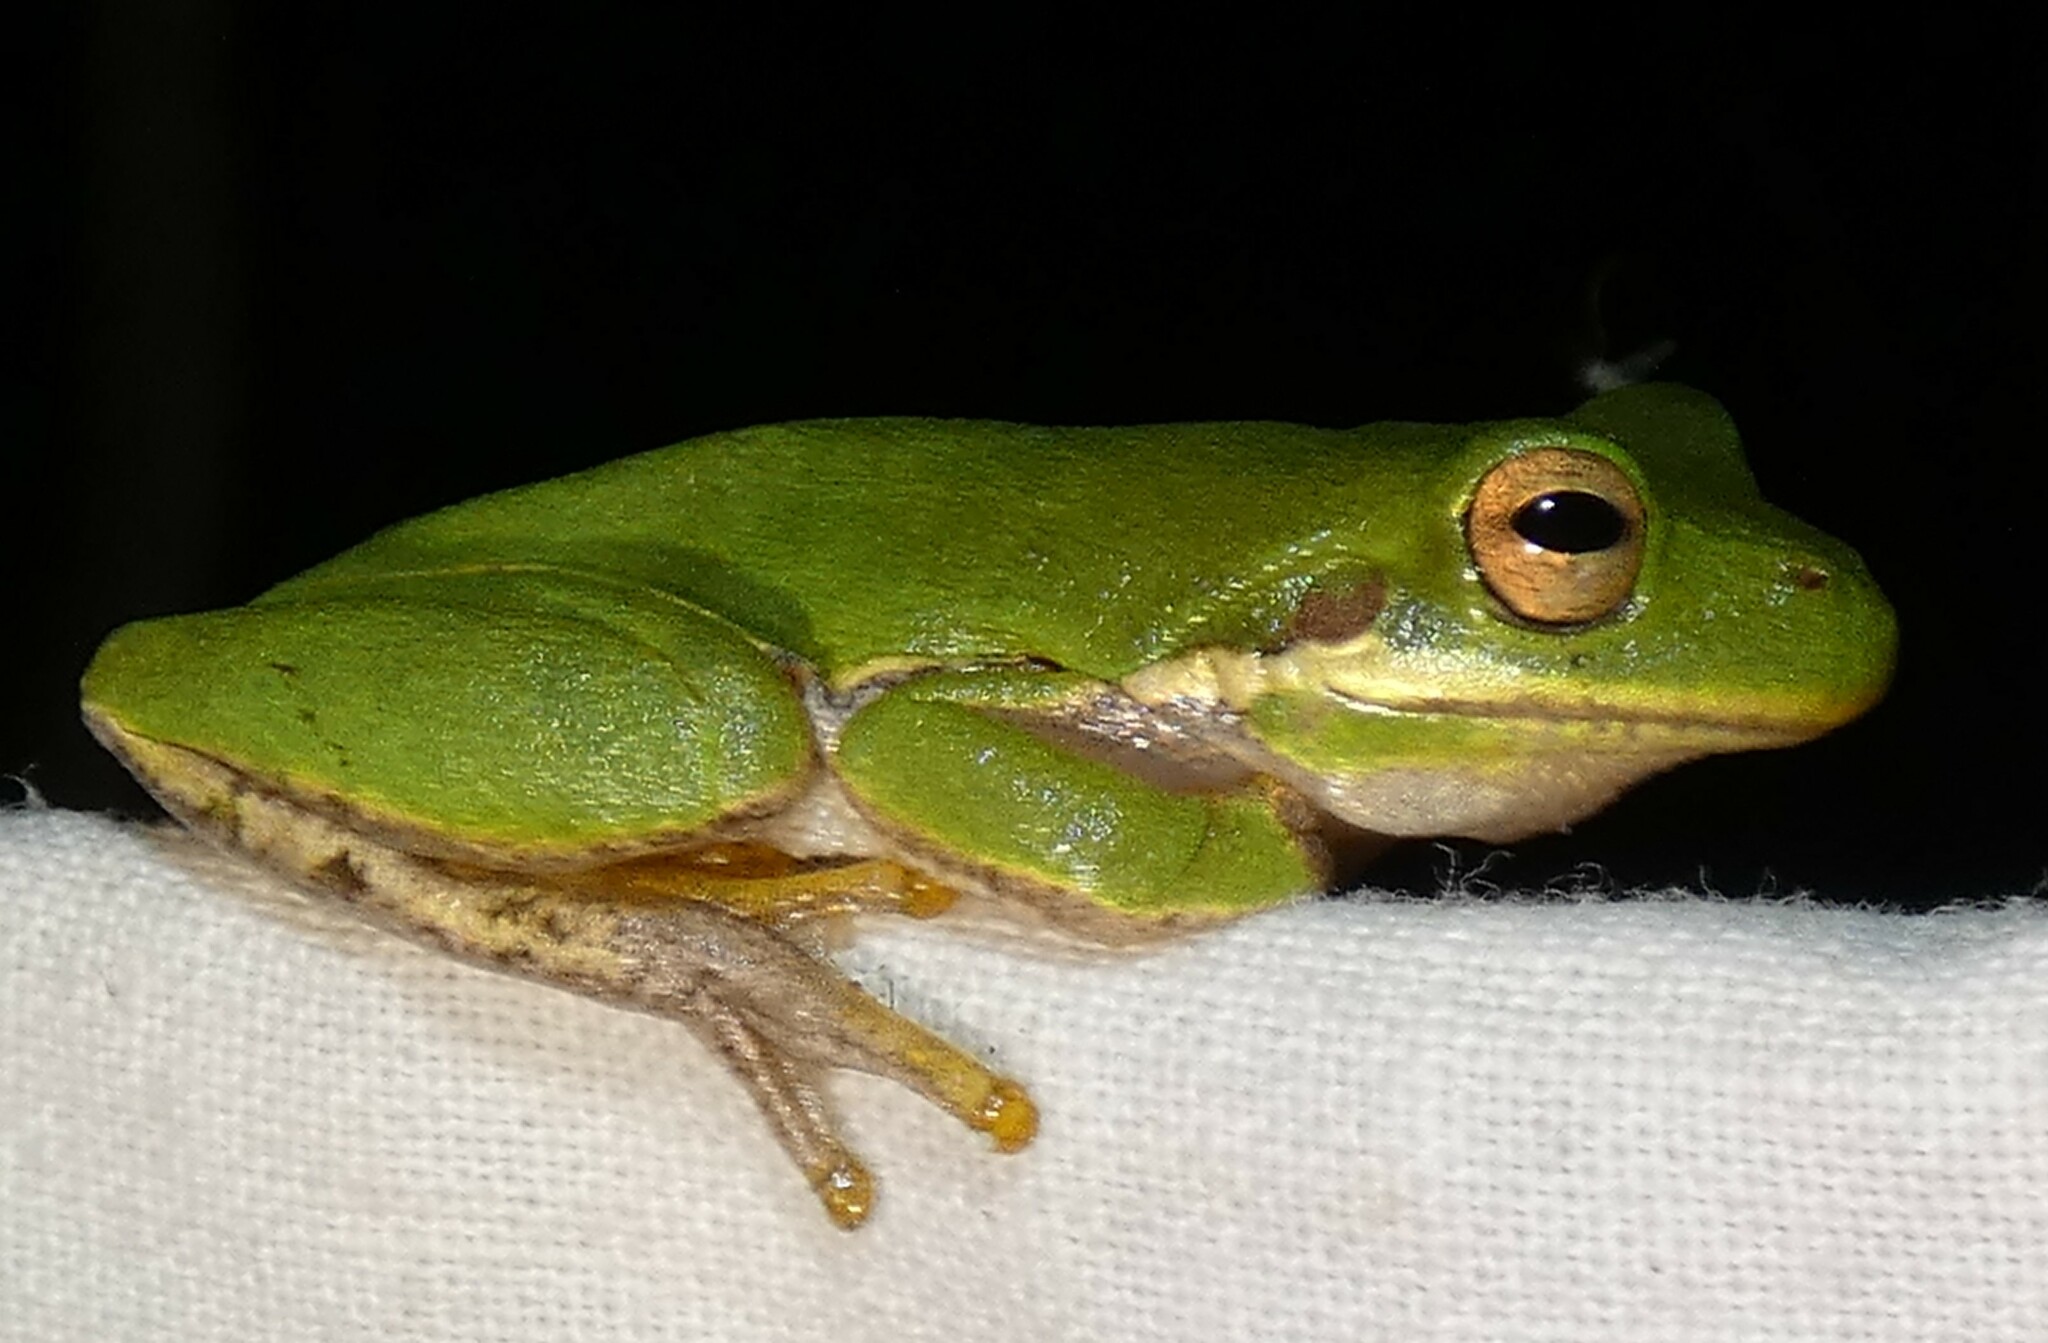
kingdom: Animalia
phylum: Chordata
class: Amphibia
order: Anura
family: Hylidae
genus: Dryophytes
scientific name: Dryophytes squirellus
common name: Squirrel treefrog
